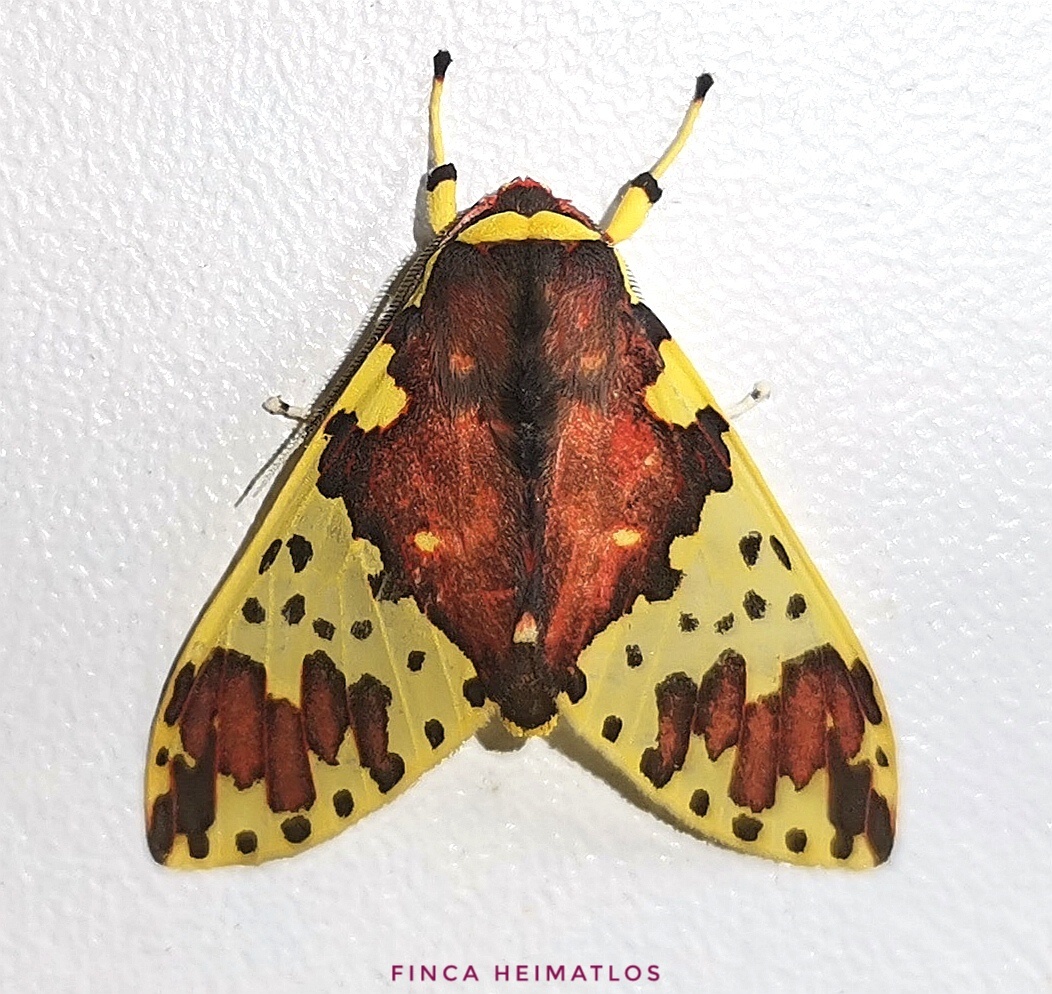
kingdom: Animalia
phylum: Arthropoda
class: Insecta
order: Lepidoptera
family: Erebidae
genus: Amaxia
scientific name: Amaxia carinosa
